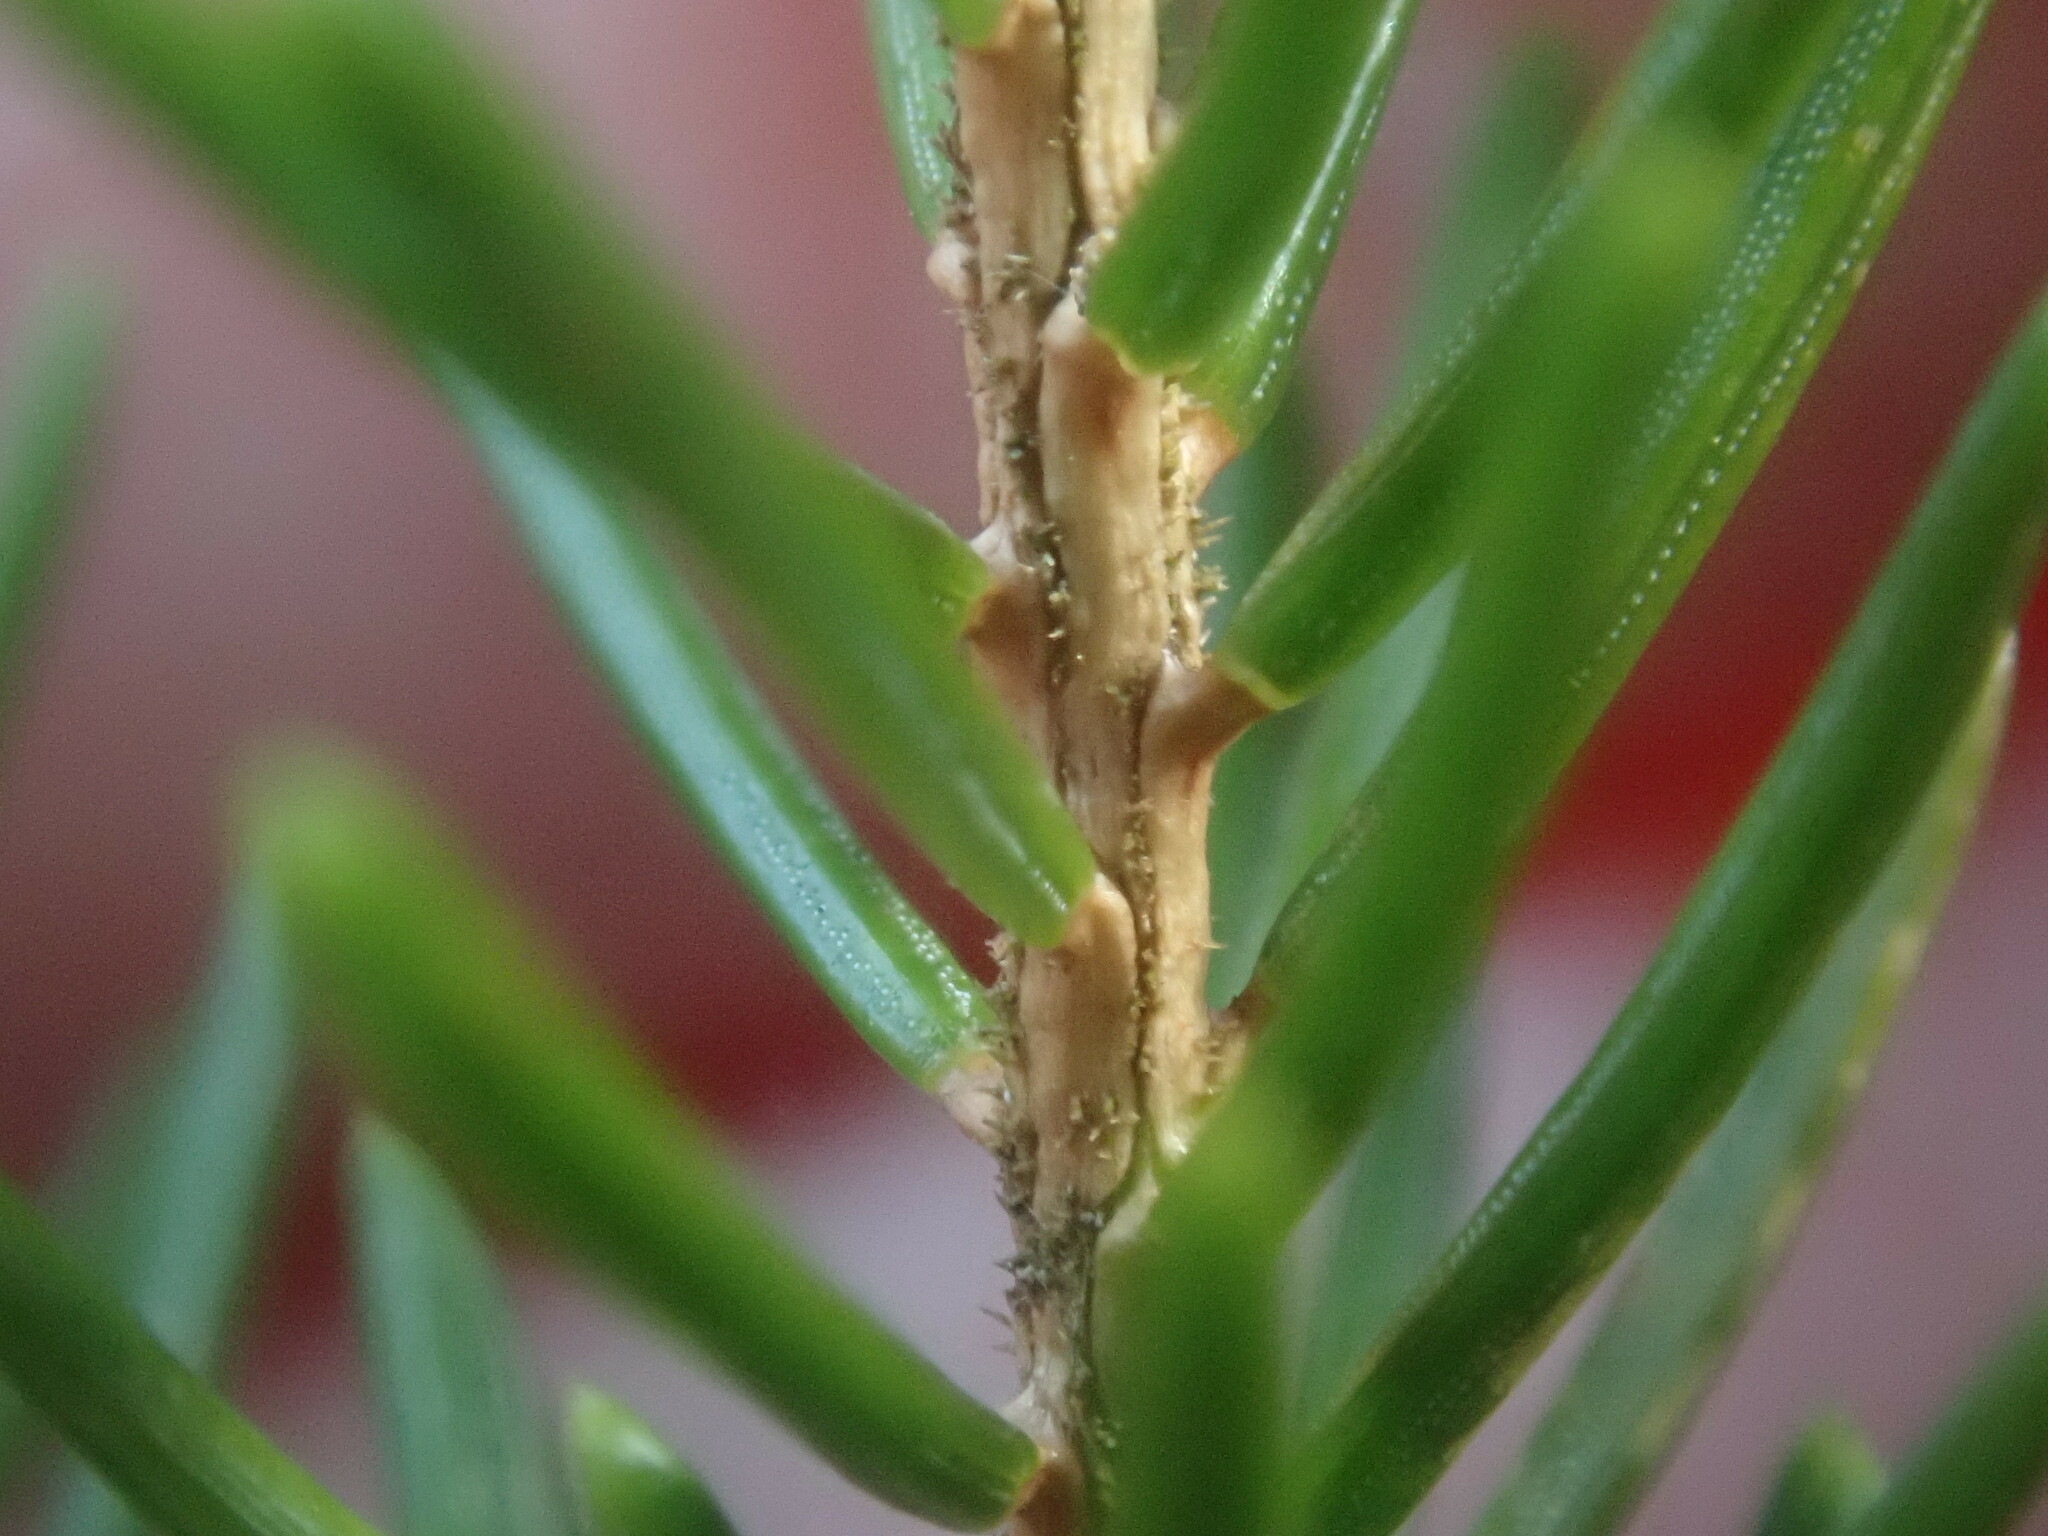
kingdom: Plantae
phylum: Tracheophyta
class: Pinopsida
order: Pinales
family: Pinaceae
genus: Picea
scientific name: Picea rubens
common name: Red spruce
